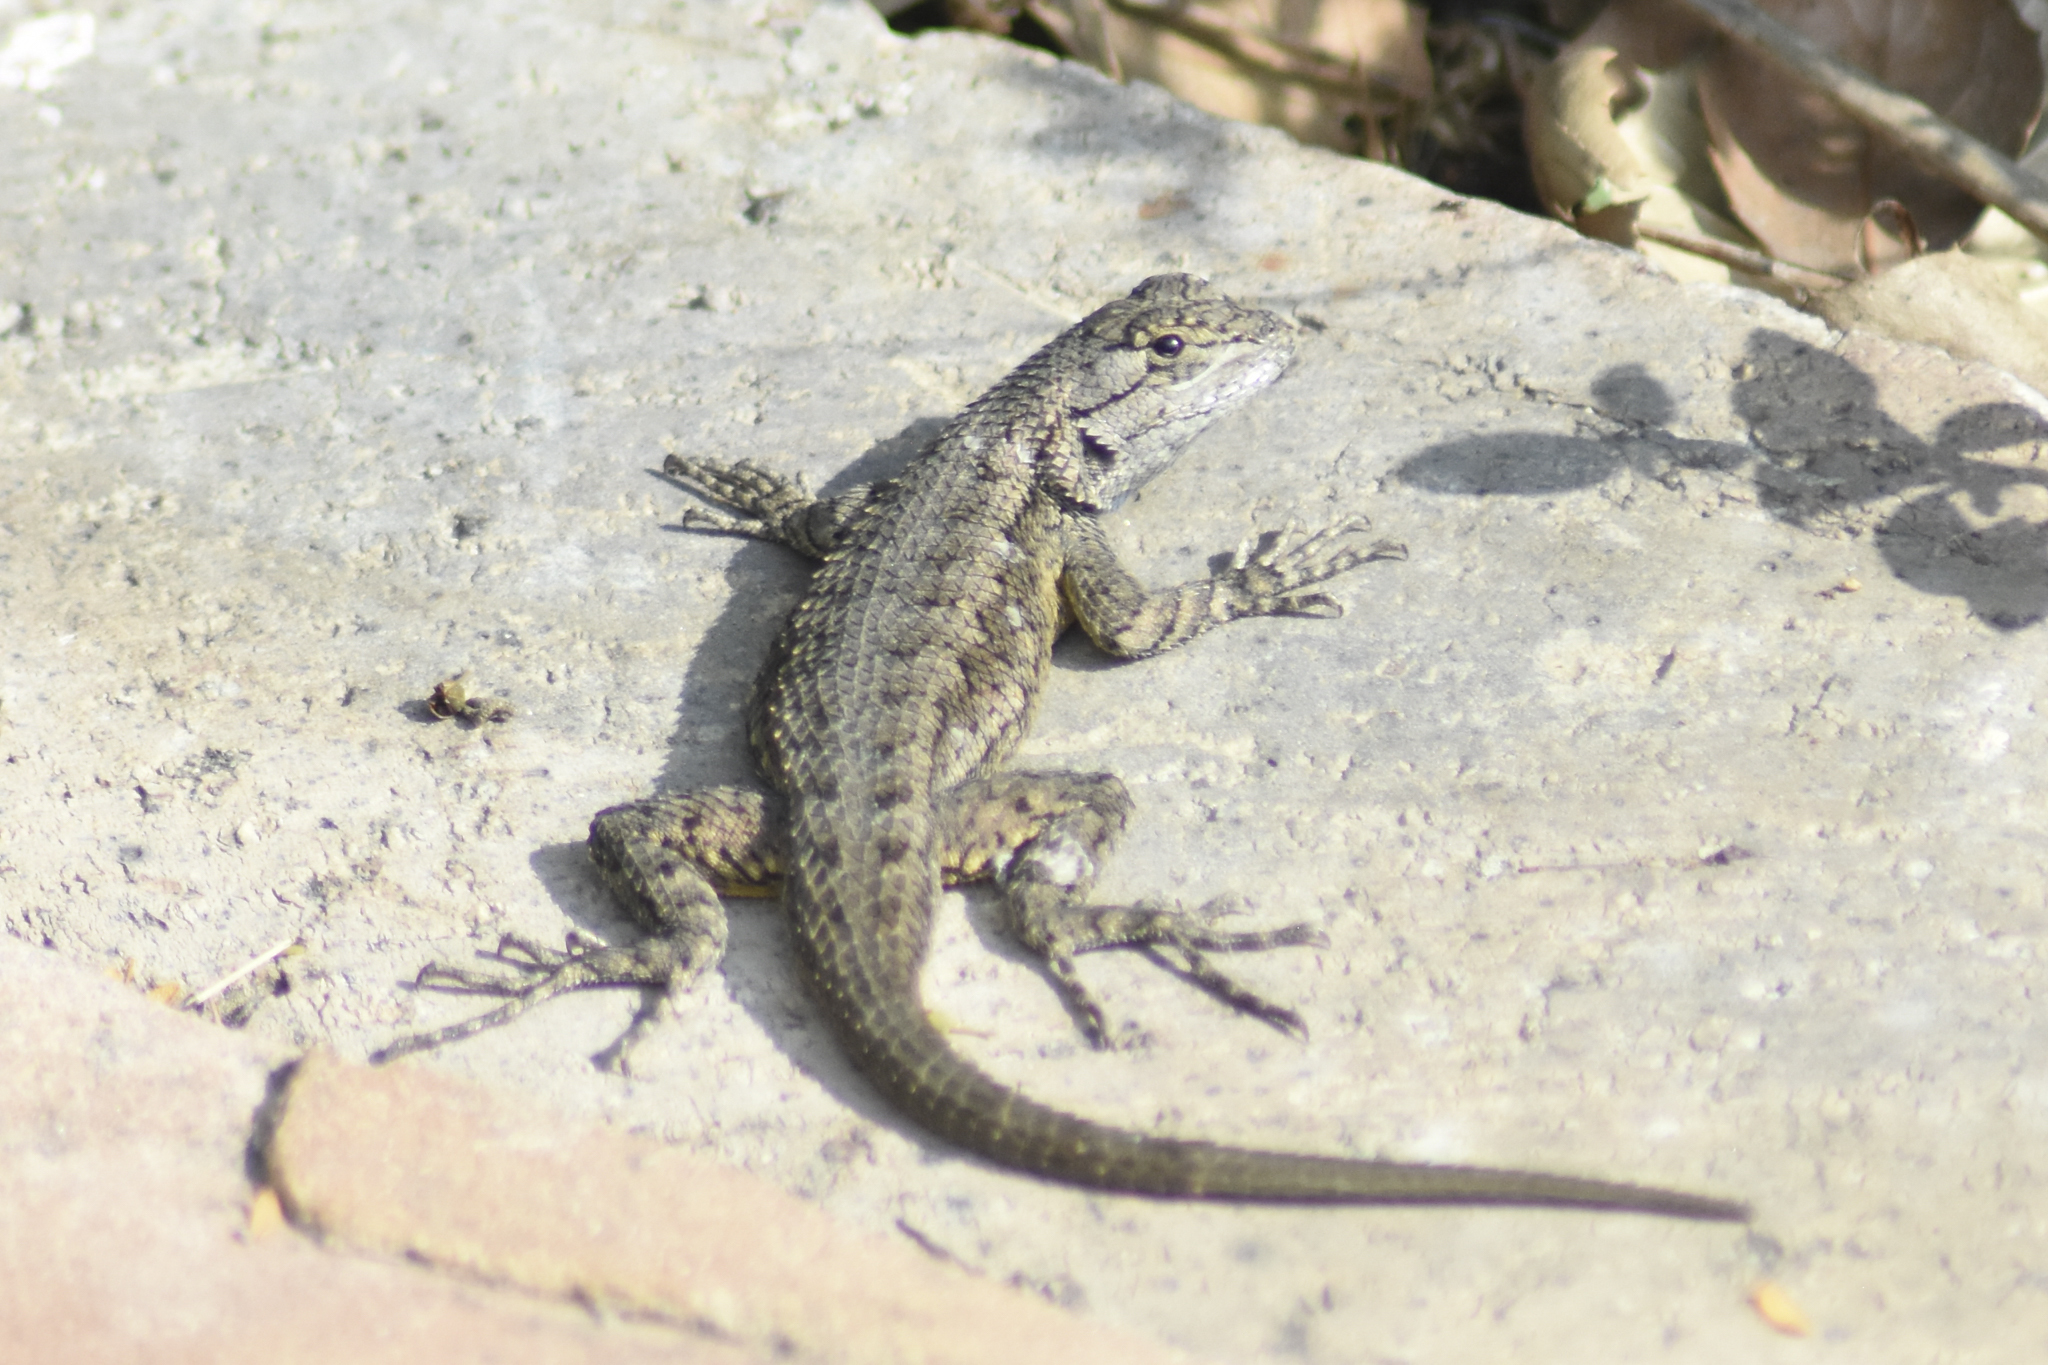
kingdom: Animalia
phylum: Chordata
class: Squamata
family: Phrynosomatidae
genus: Sceloporus
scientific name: Sceloporus occidentalis
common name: Western fence lizard
